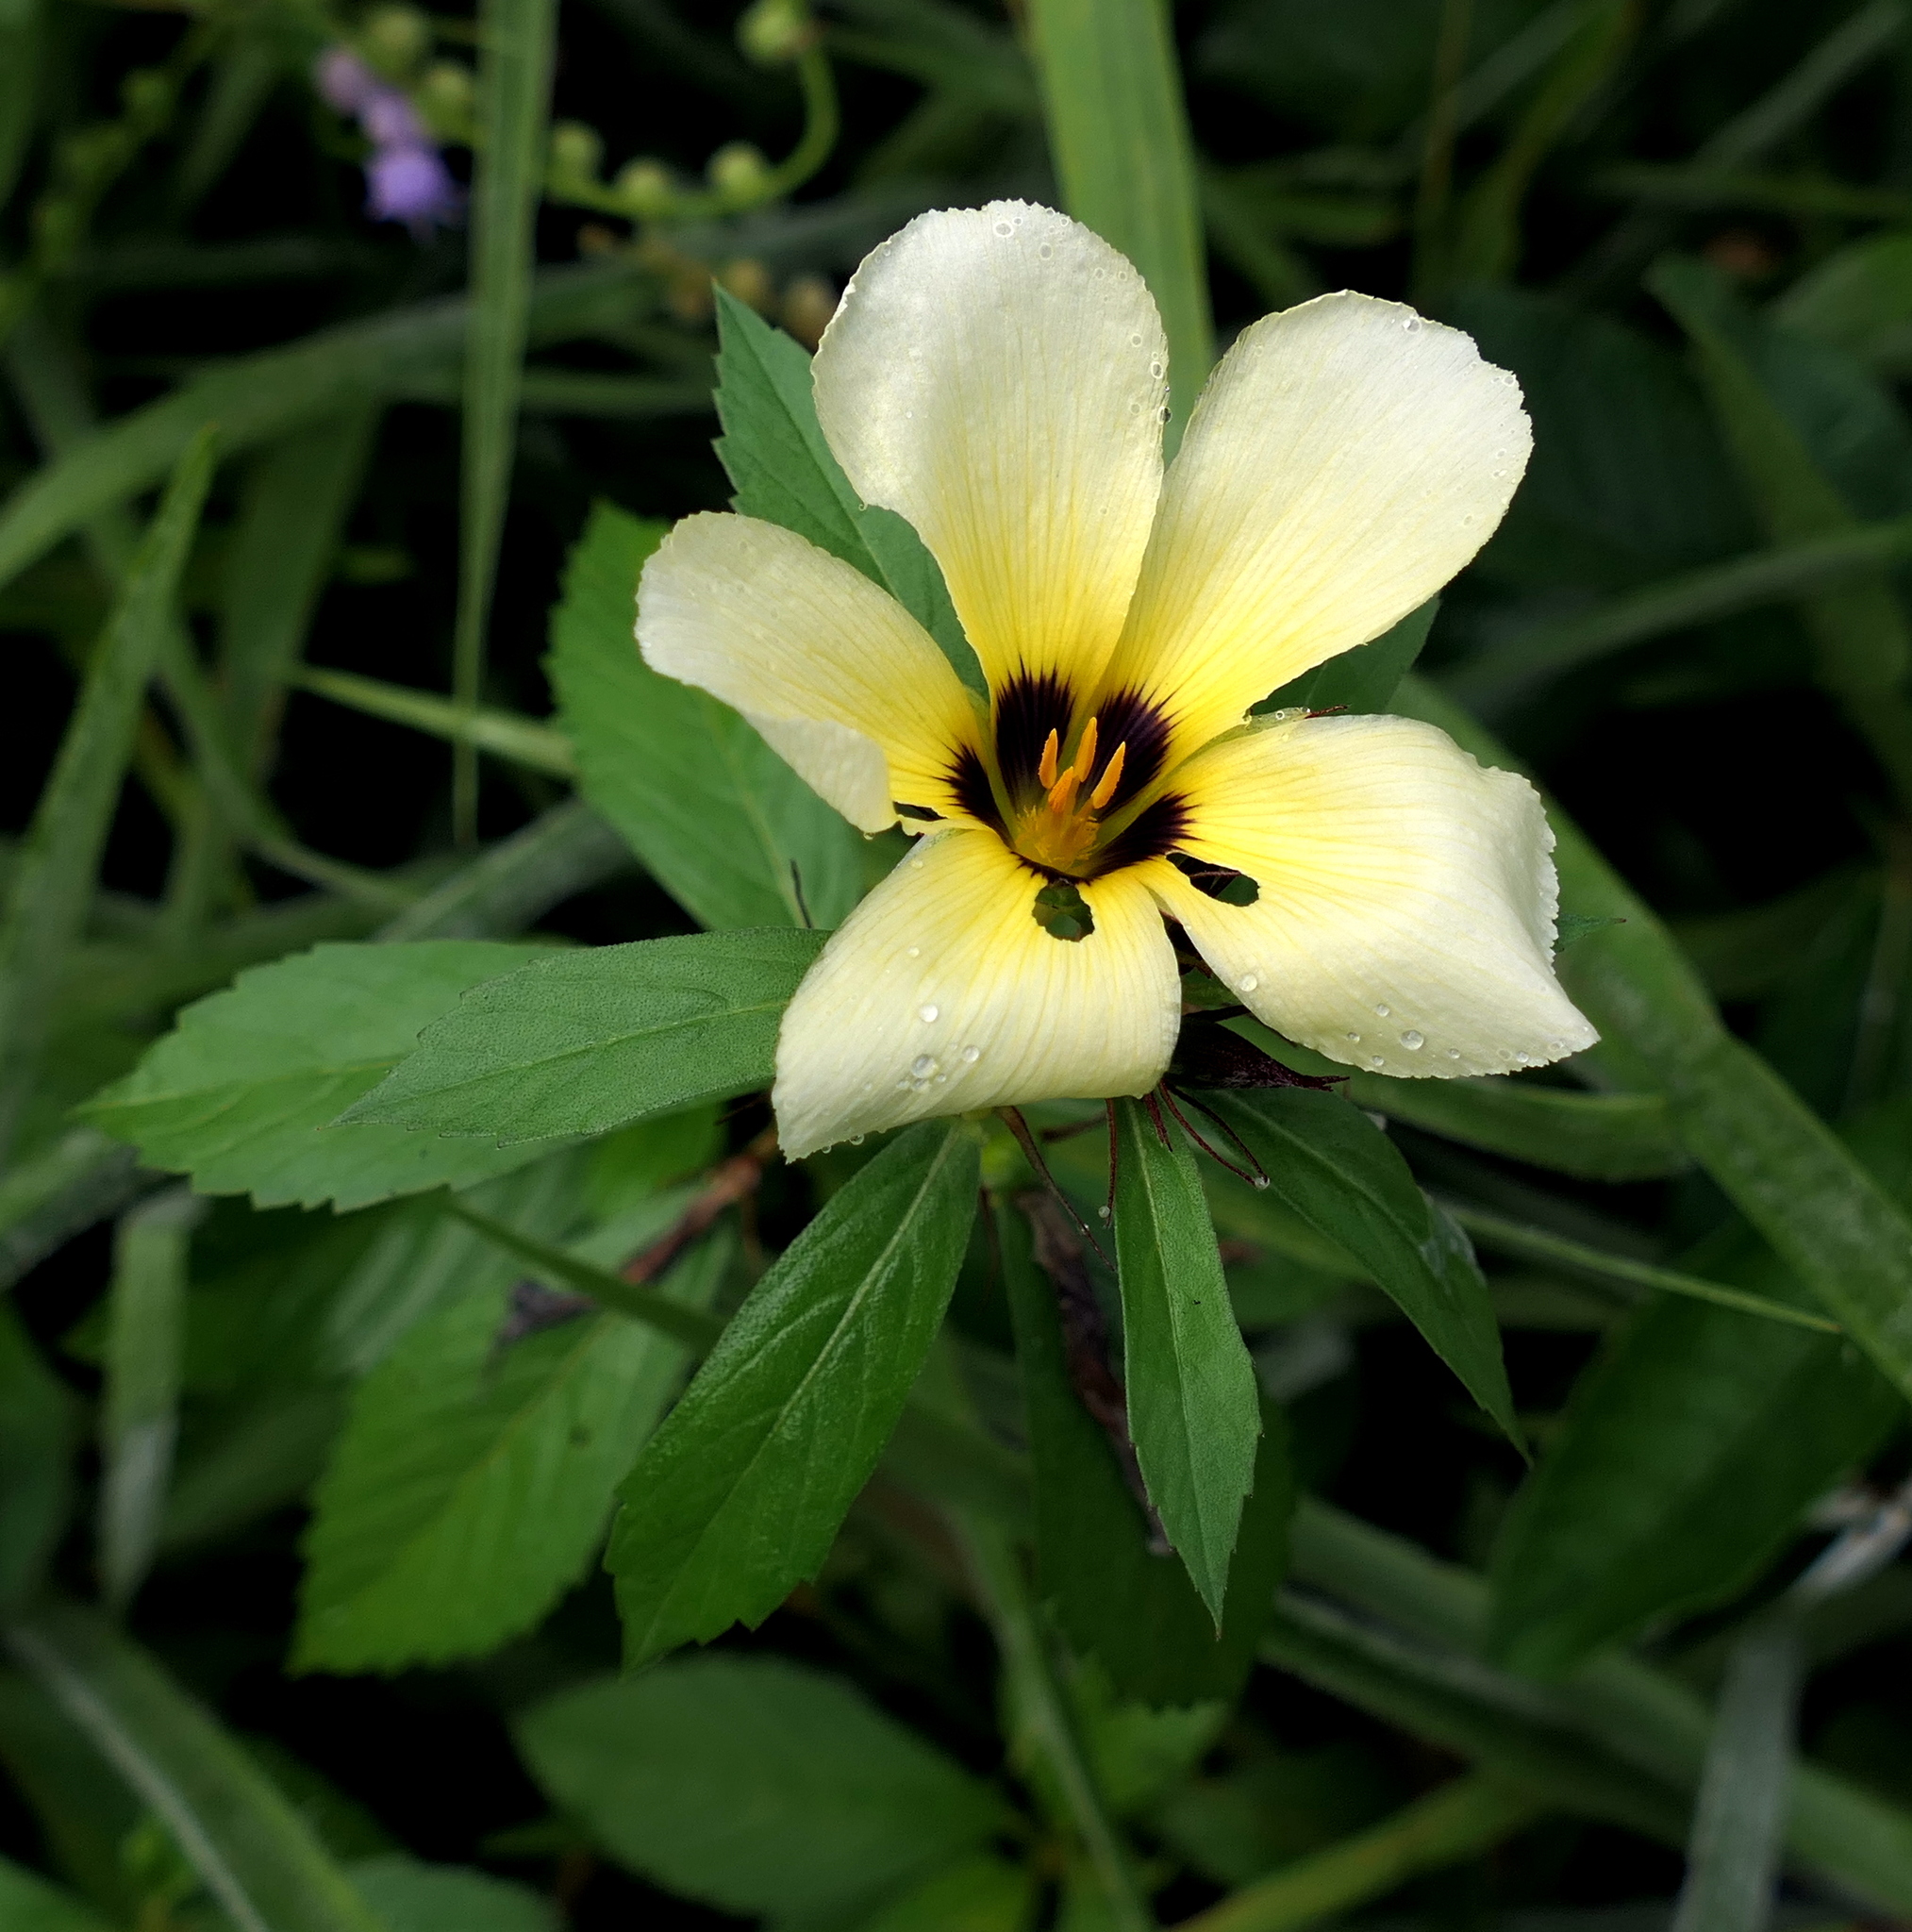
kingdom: Plantae
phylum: Tracheophyta
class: Magnoliopsida
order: Malpighiales
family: Turneraceae
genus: Turnera
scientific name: Turnera subulata
